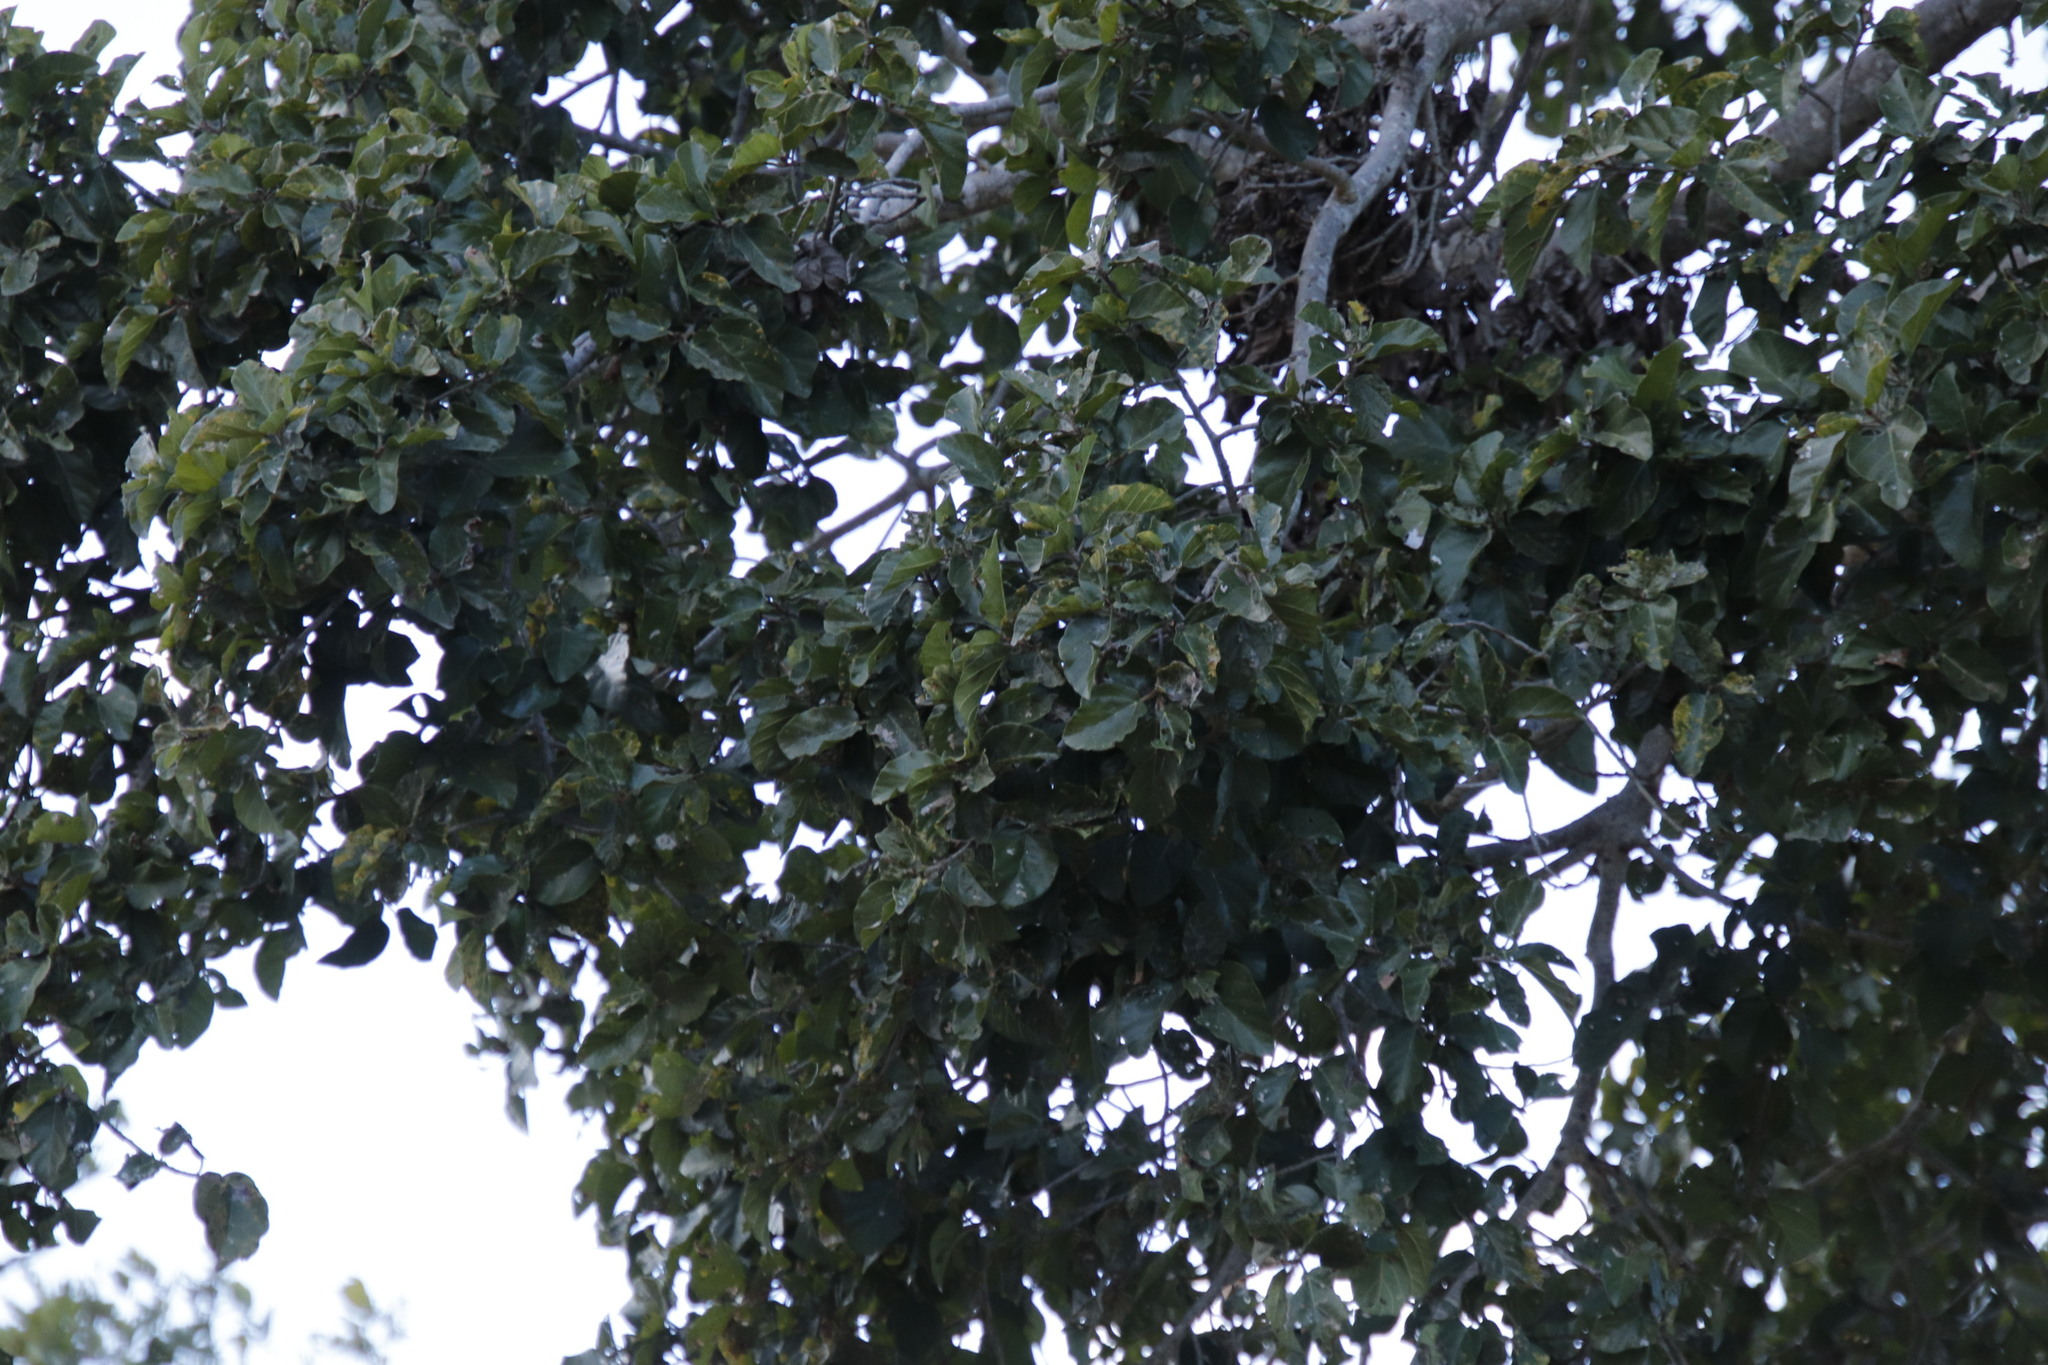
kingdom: Plantae
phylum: Tracheophyta
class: Magnoliopsida
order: Rosales
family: Moraceae
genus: Ficus
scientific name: Ficus sycomorus
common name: Sycomore
